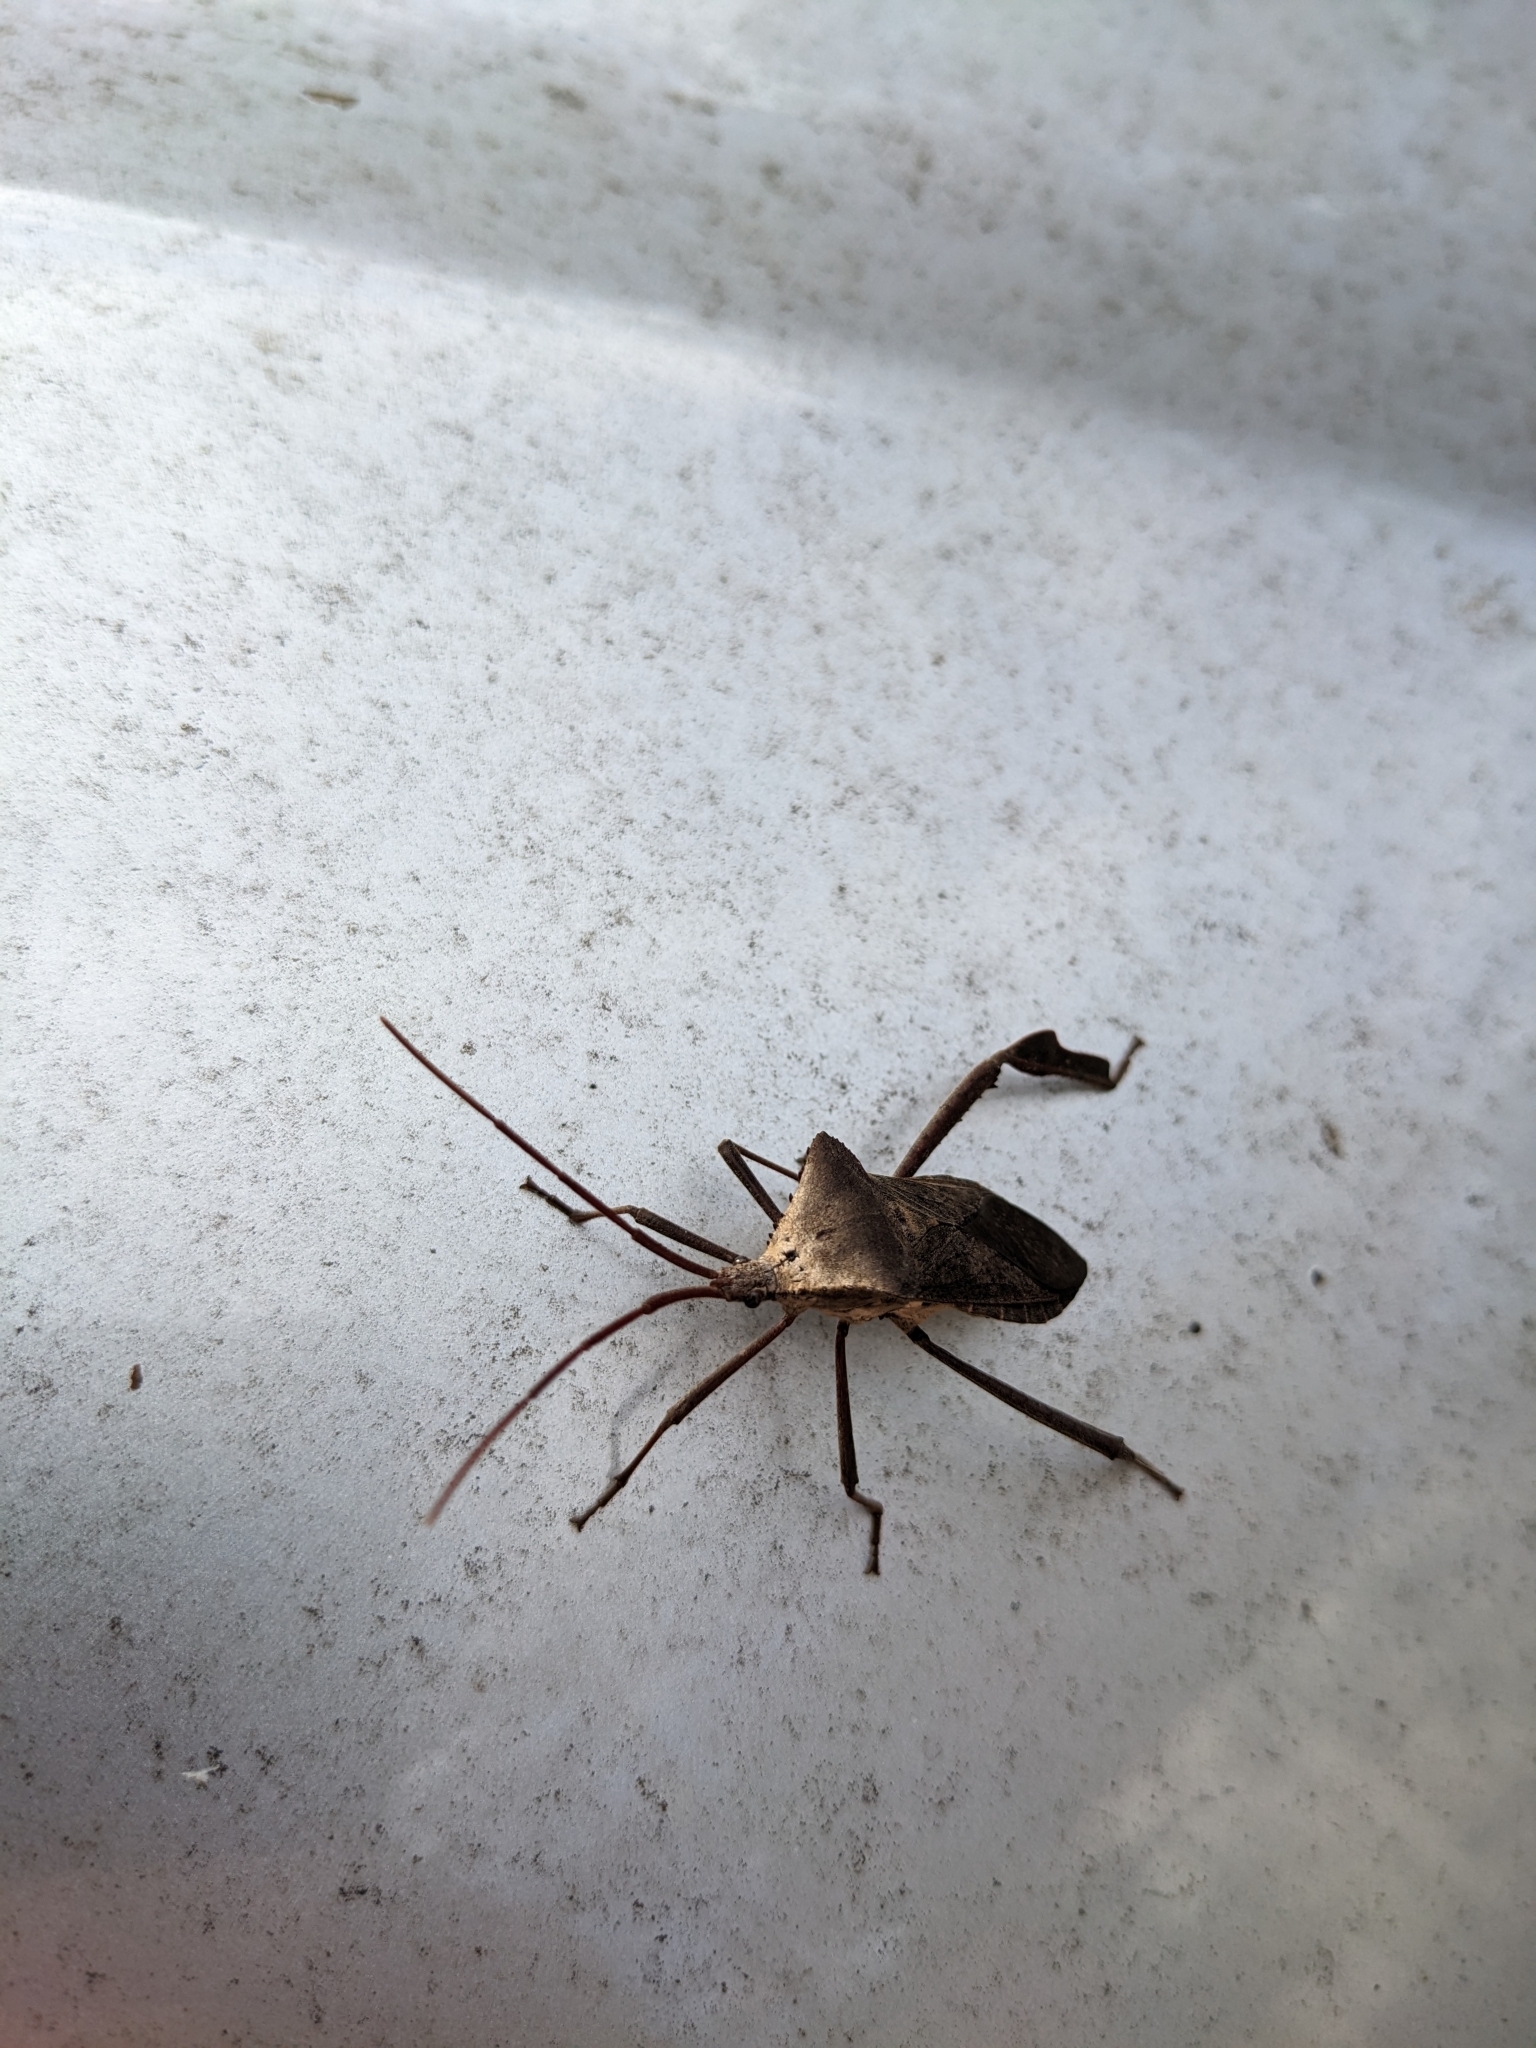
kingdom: Animalia
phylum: Arthropoda
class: Insecta
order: Hemiptera
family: Coreidae
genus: Acanthocephala
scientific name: Acanthocephala declivis
